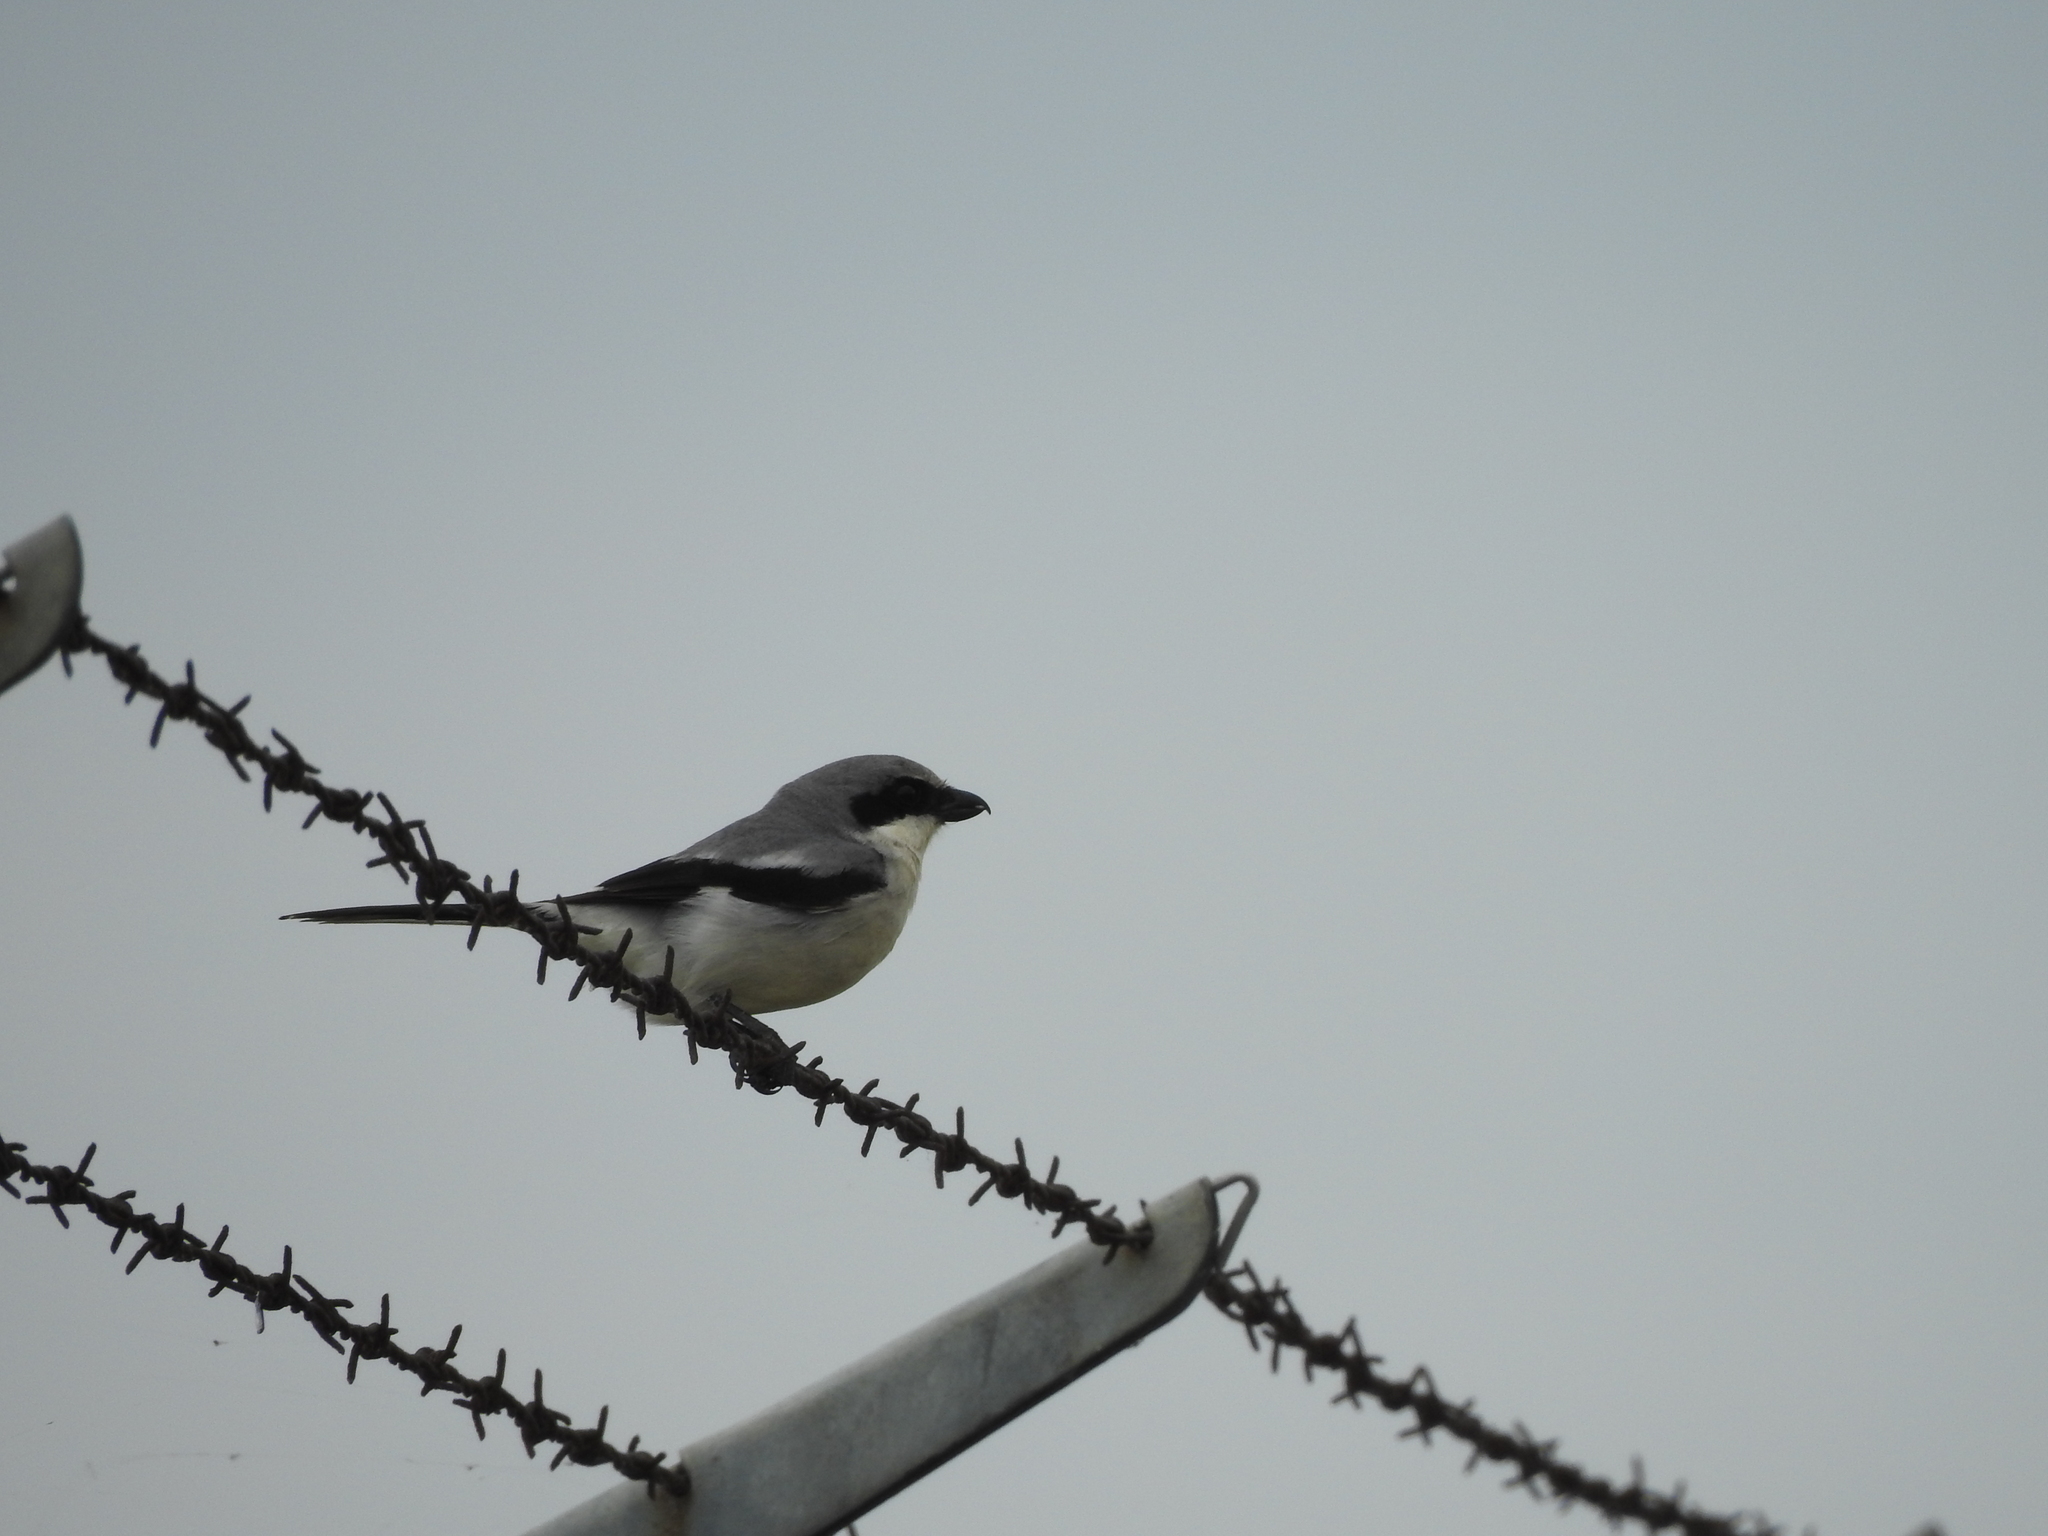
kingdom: Animalia
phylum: Chordata
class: Aves
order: Passeriformes
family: Laniidae
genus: Lanius
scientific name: Lanius ludovicianus
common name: Loggerhead shrike
